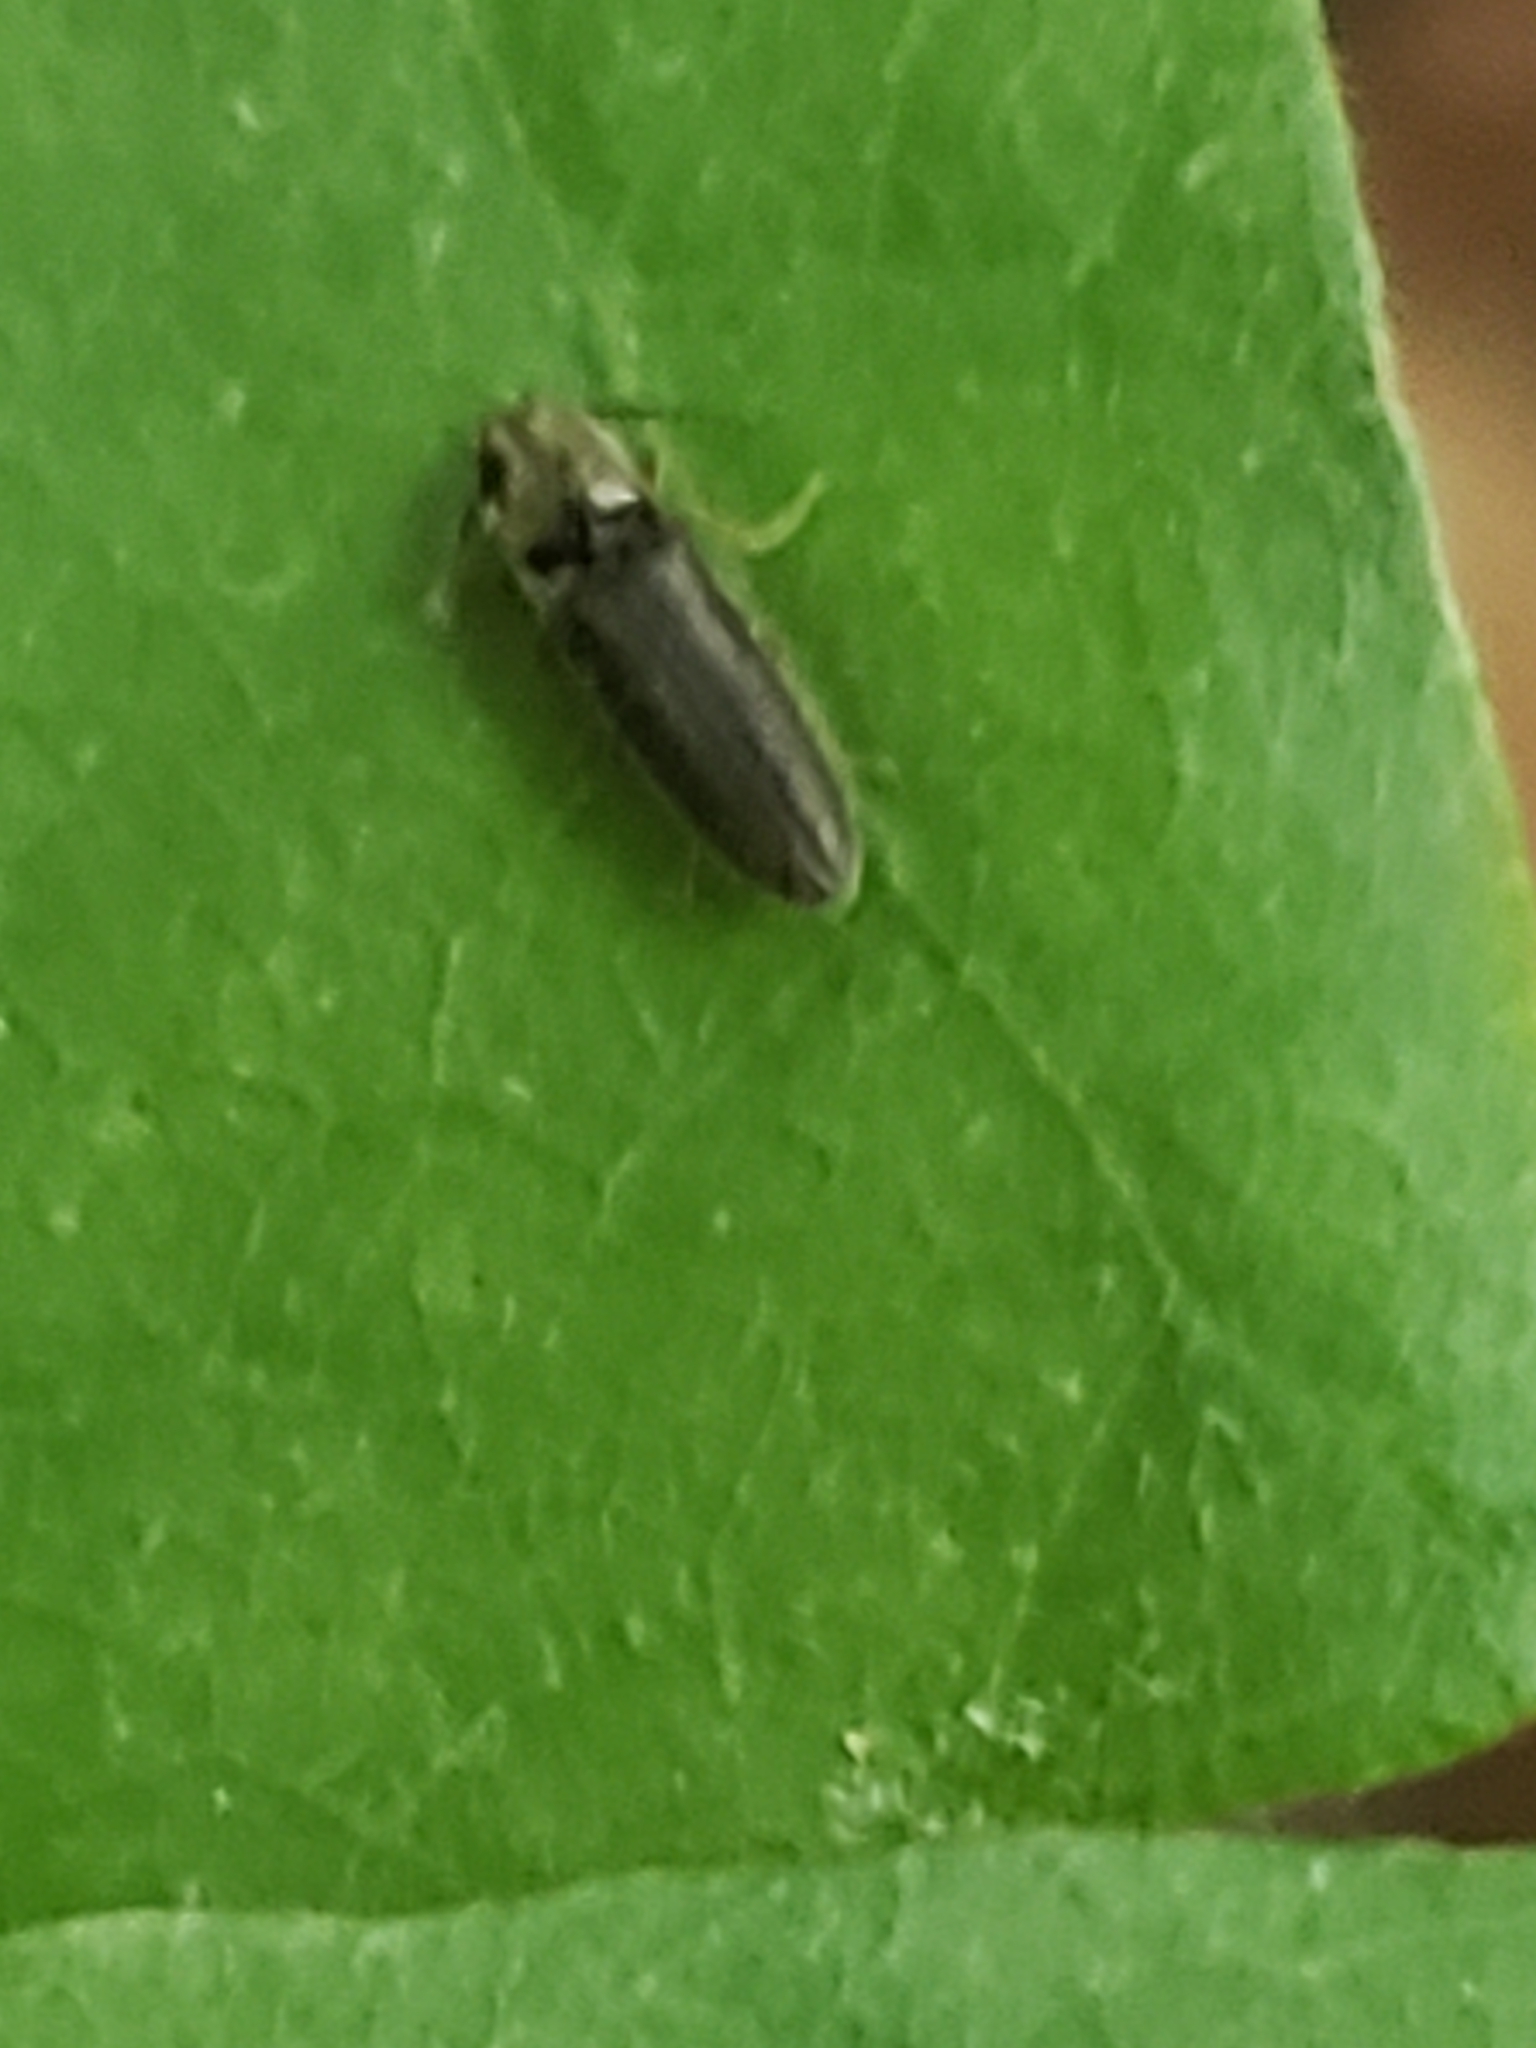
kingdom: Animalia
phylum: Arthropoda
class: Insecta
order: Coleoptera
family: Elateridae
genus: Limonius
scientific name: Limonius quercinus
